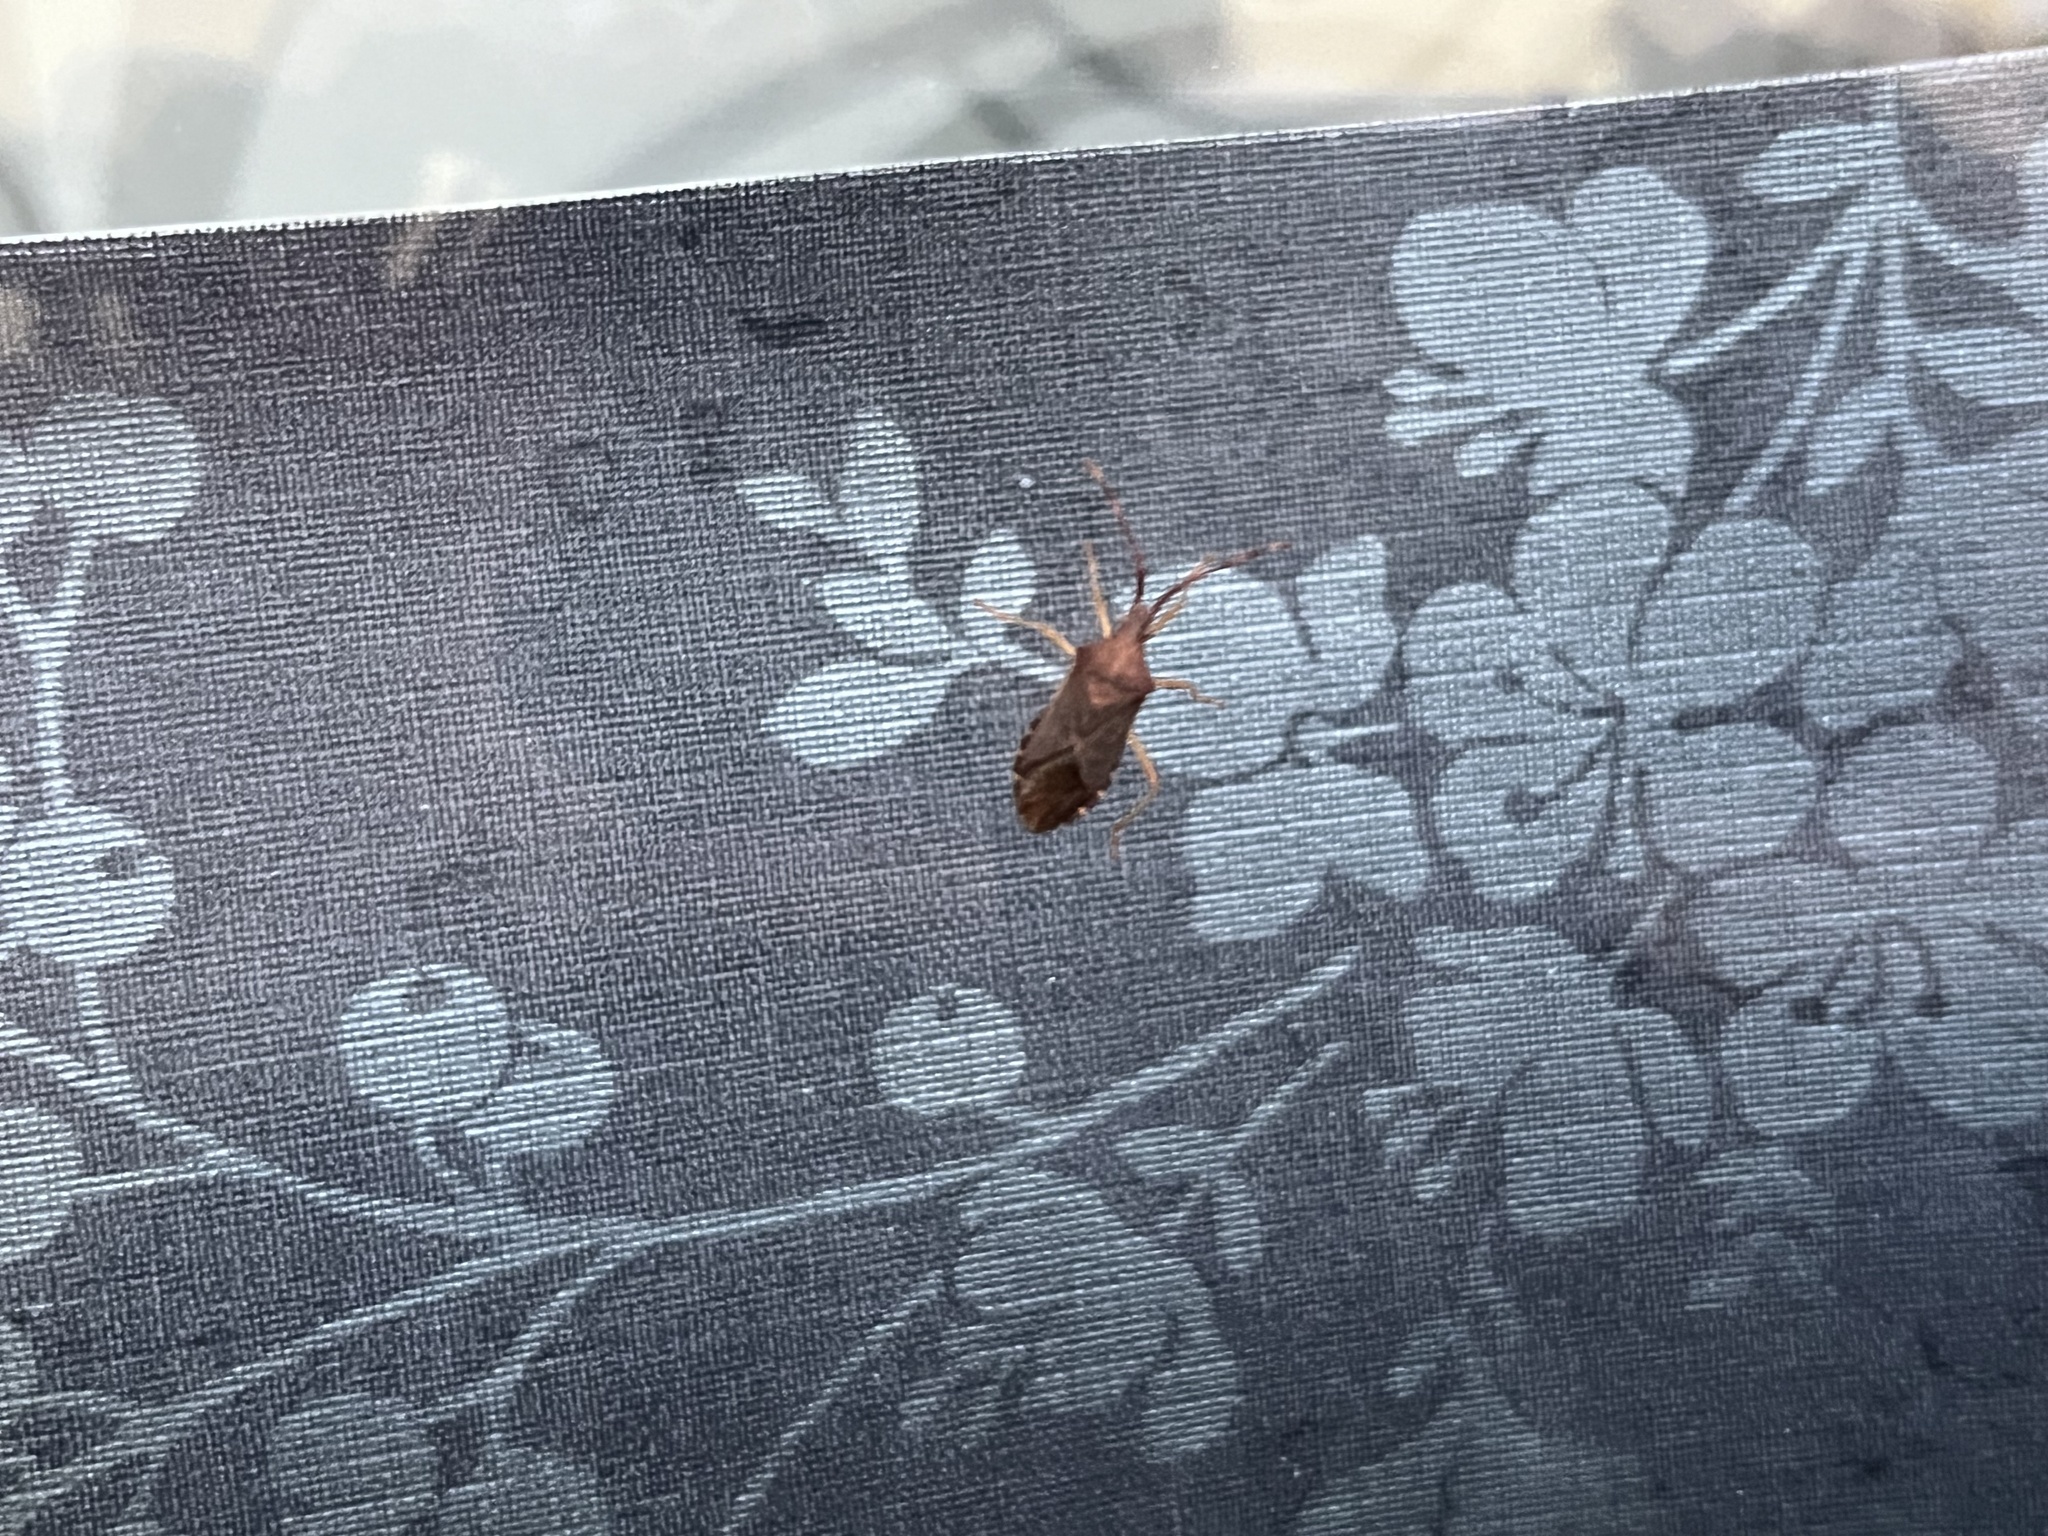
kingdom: Animalia
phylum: Arthropoda
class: Insecta
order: Hemiptera
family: Coreidae
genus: Gonocerus
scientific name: Gonocerus acuteangulatus
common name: Box bug
